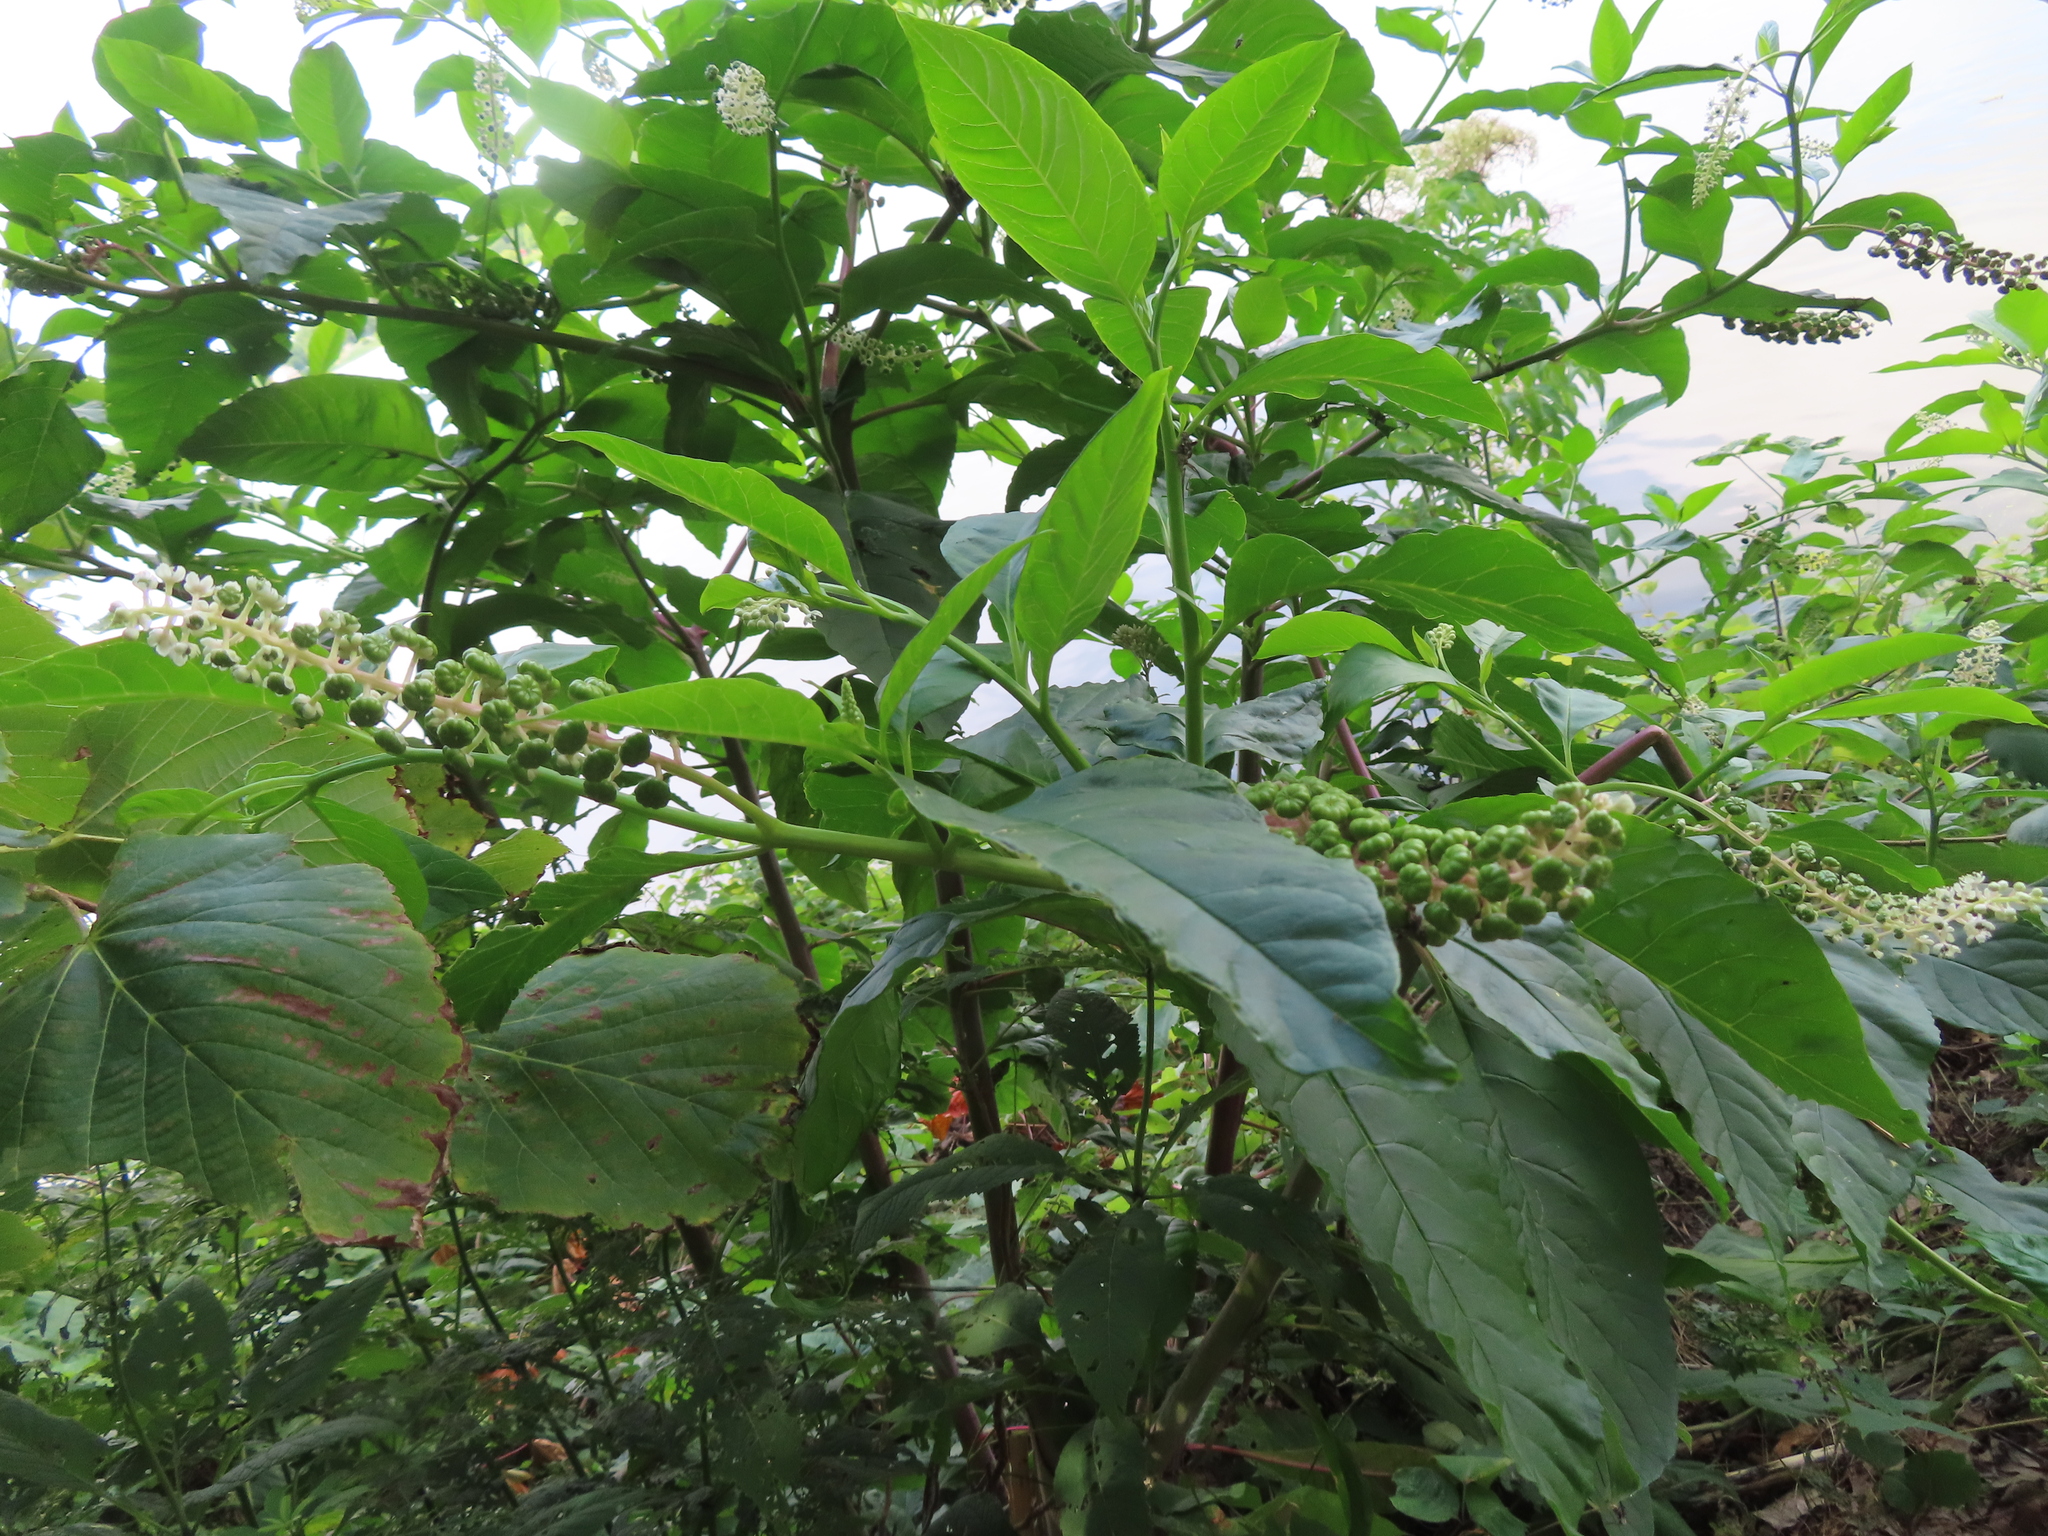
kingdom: Plantae
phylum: Tracheophyta
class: Magnoliopsida
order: Caryophyllales
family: Phytolaccaceae
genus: Phytolacca
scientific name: Phytolacca americana
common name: American pokeweed
